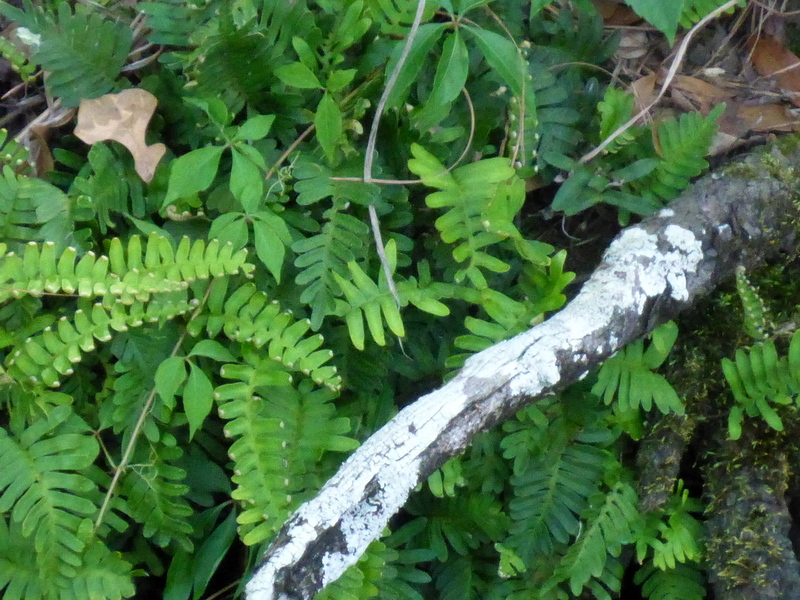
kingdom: Plantae
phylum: Tracheophyta
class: Polypodiopsida
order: Polypodiales
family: Polypodiaceae
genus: Pleopeltis
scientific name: Pleopeltis michauxiana
